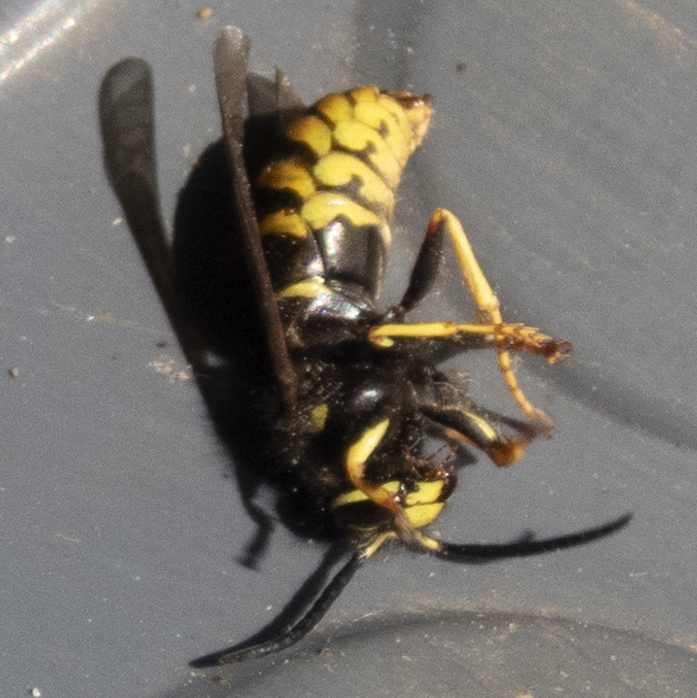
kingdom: Animalia
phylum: Arthropoda
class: Insecta
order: Hymenoptera
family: Vespidae
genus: Vespula
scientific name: Vespula vidua
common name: Widow yellowjacket
